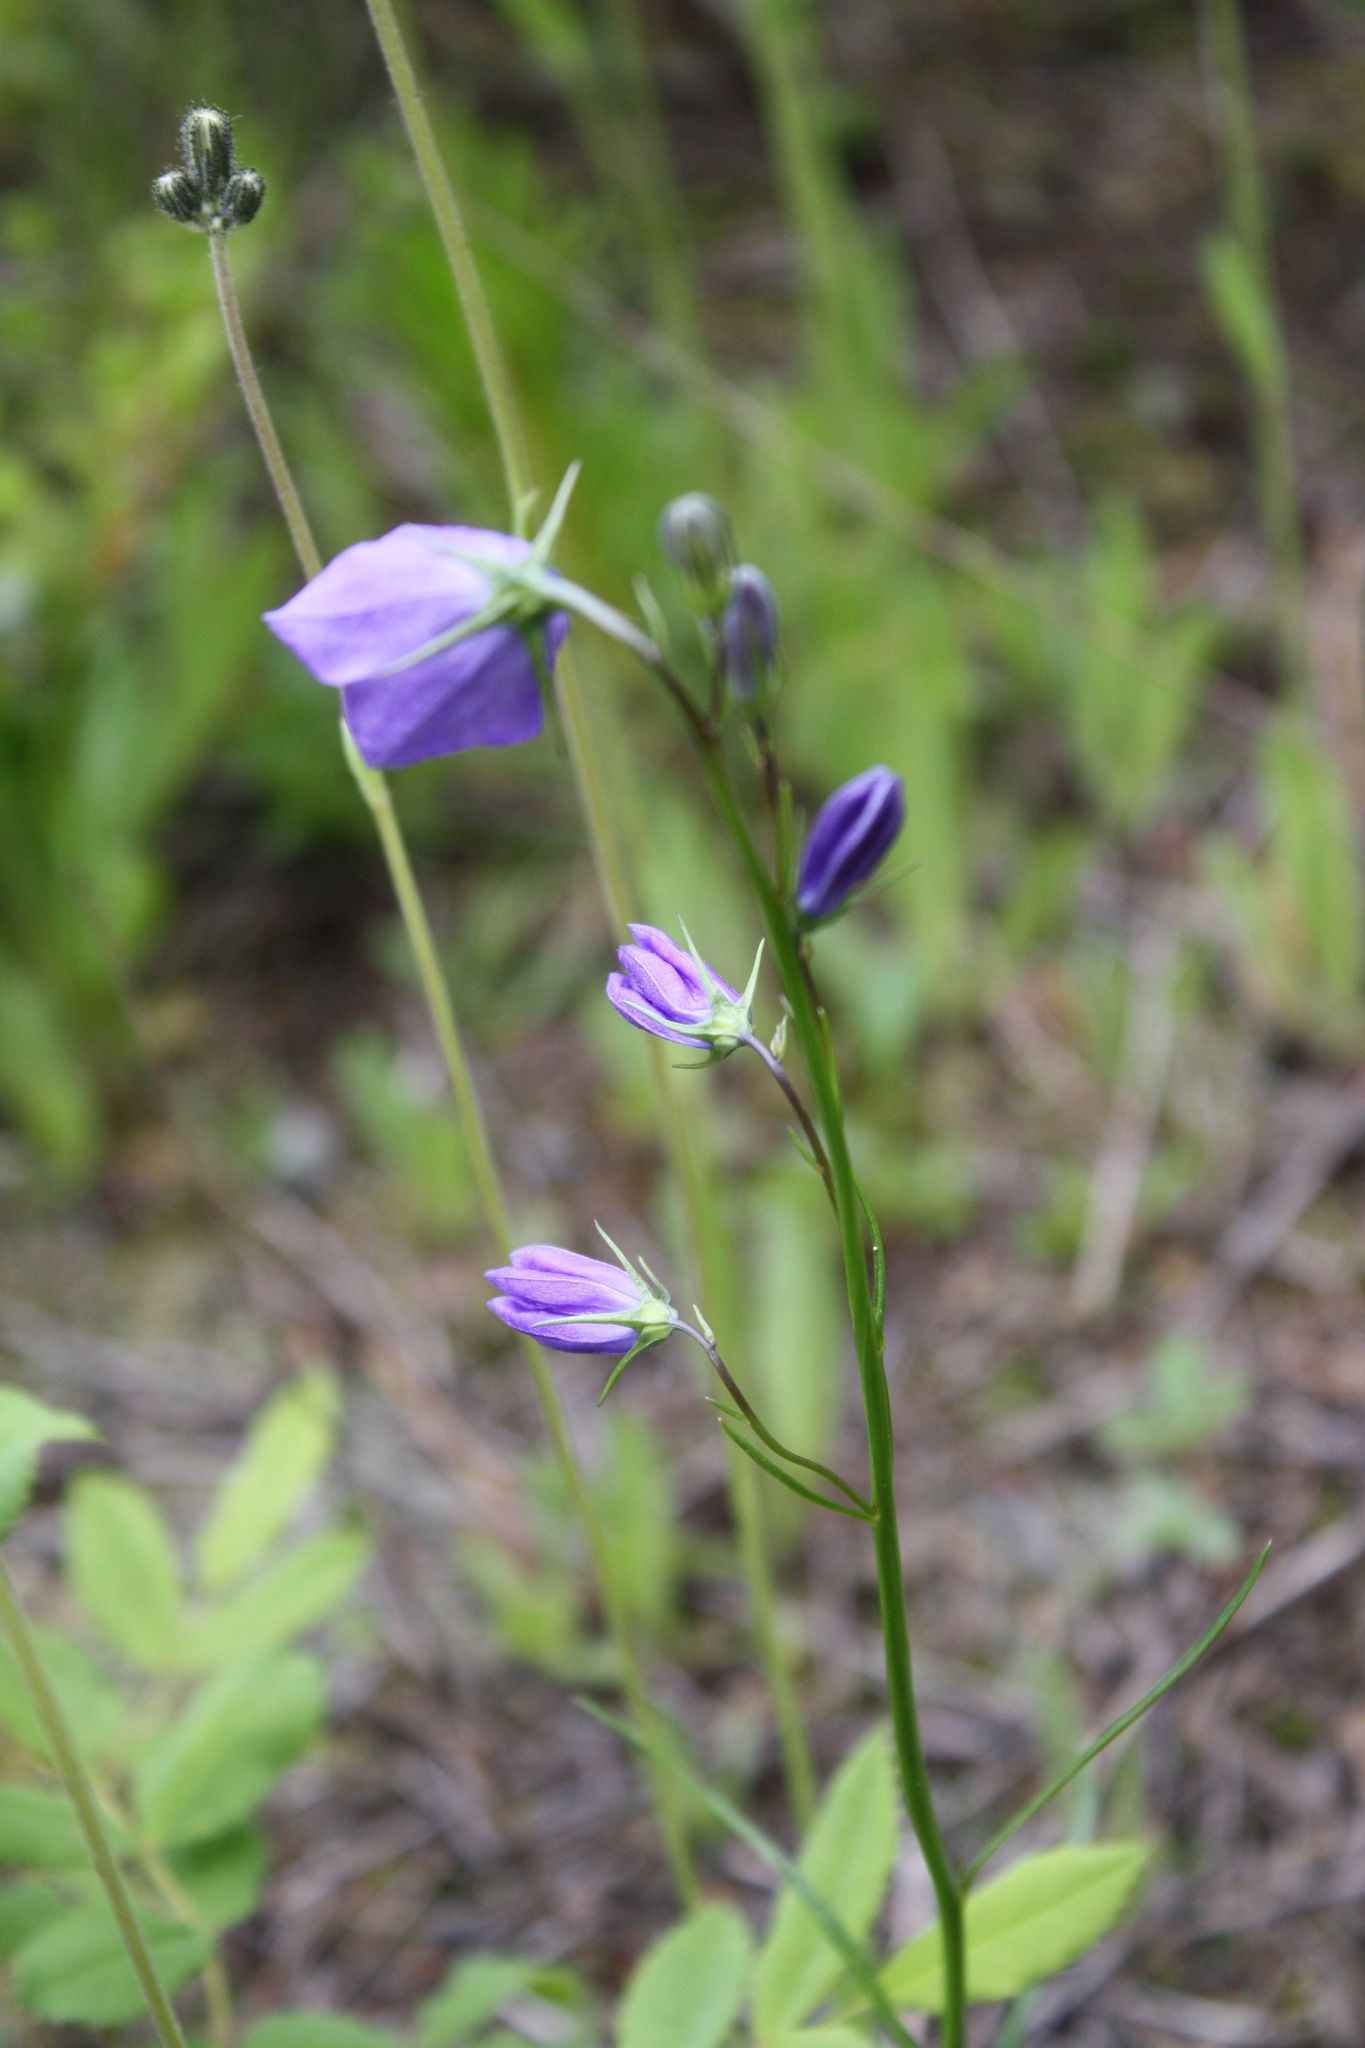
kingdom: Plantae
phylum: Tracheophyta
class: Magnoliopsida
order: Asterales
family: Campanulaceae
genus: Campanula
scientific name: Campanula alaskana
